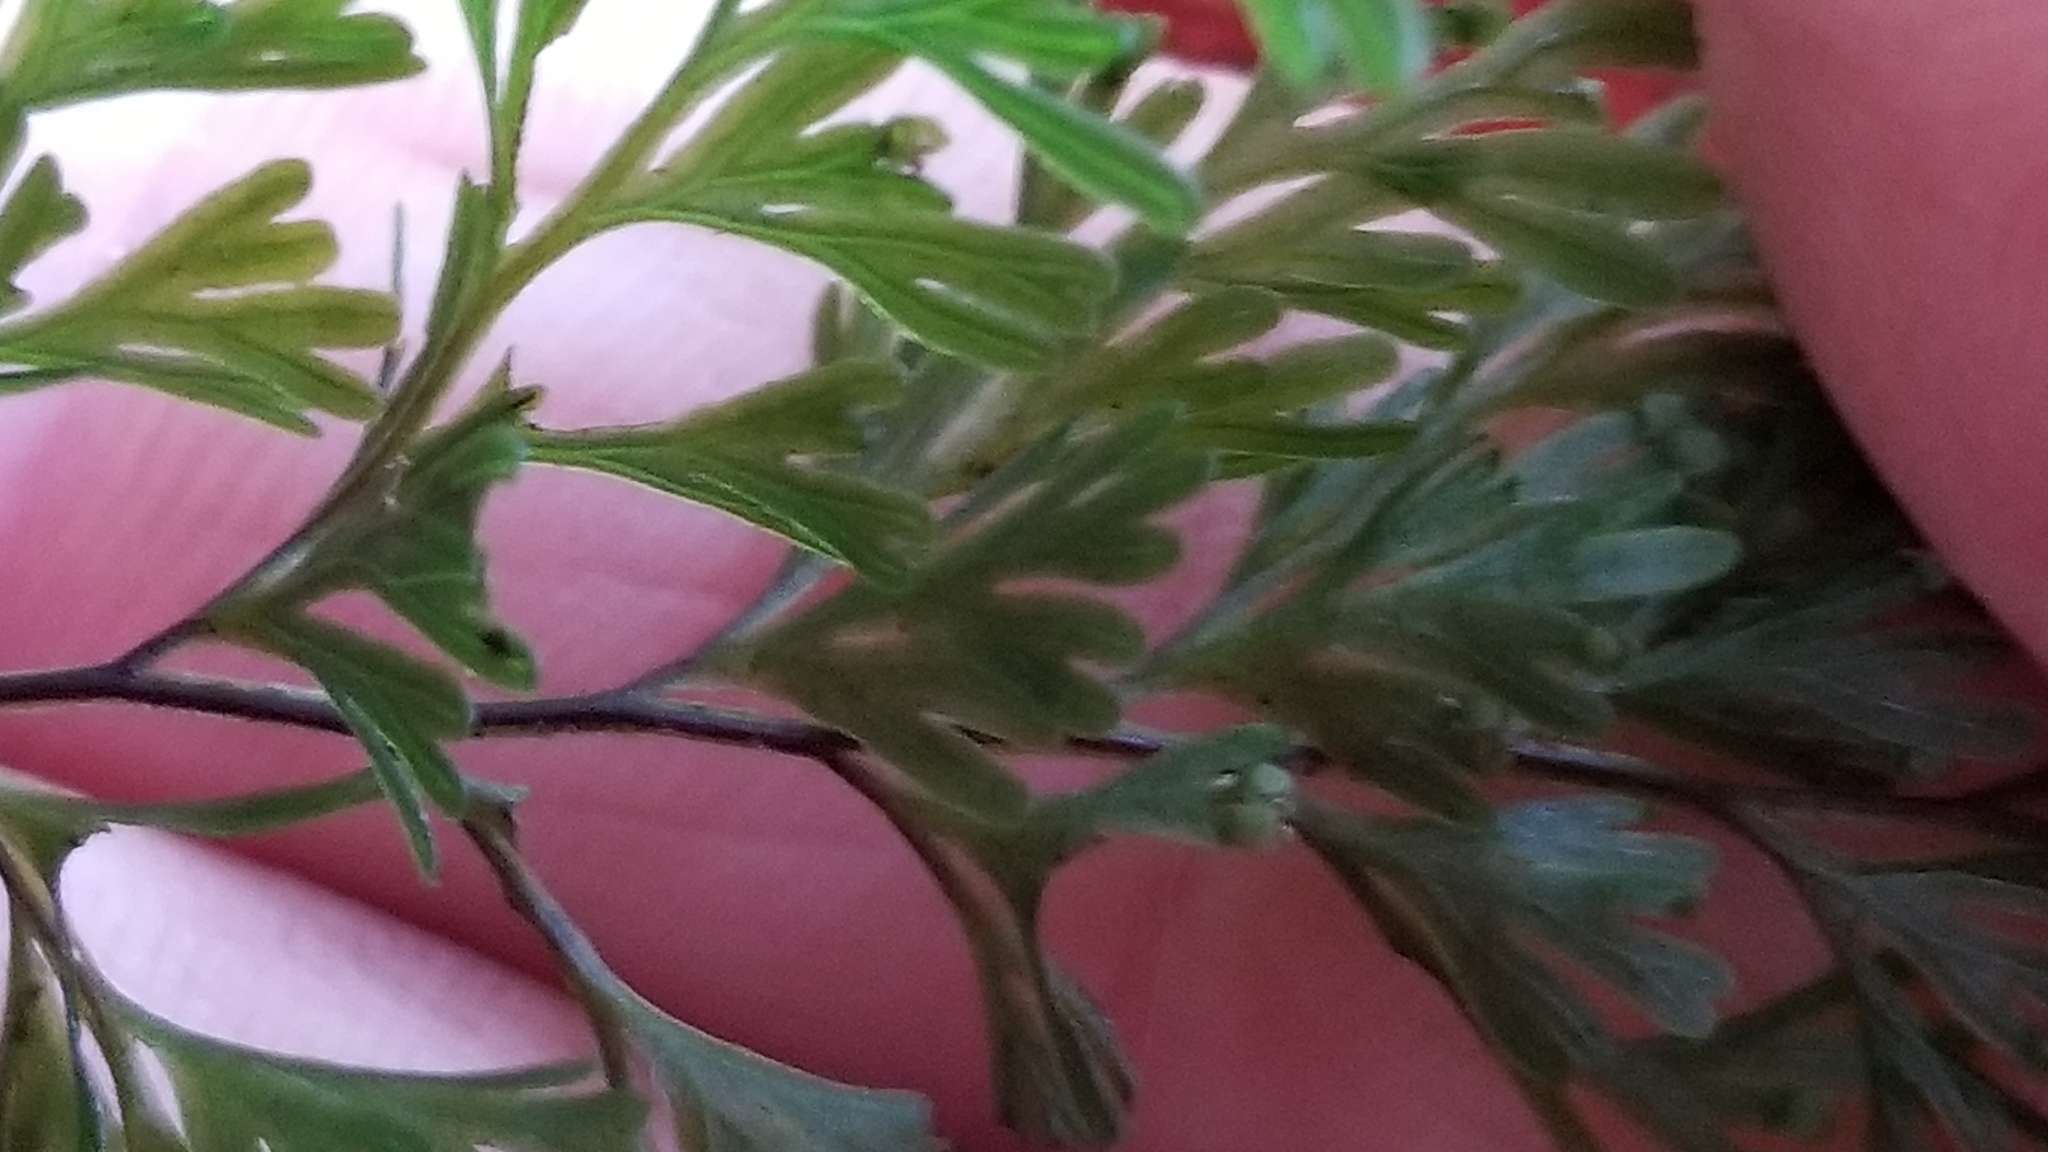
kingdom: Plantae
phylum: Tracheophyta
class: Polypodiopsida
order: Hymenophyllales
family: Hymenophyllaceae
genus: Hymenophyllum
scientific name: Hymenophyllum demissum
